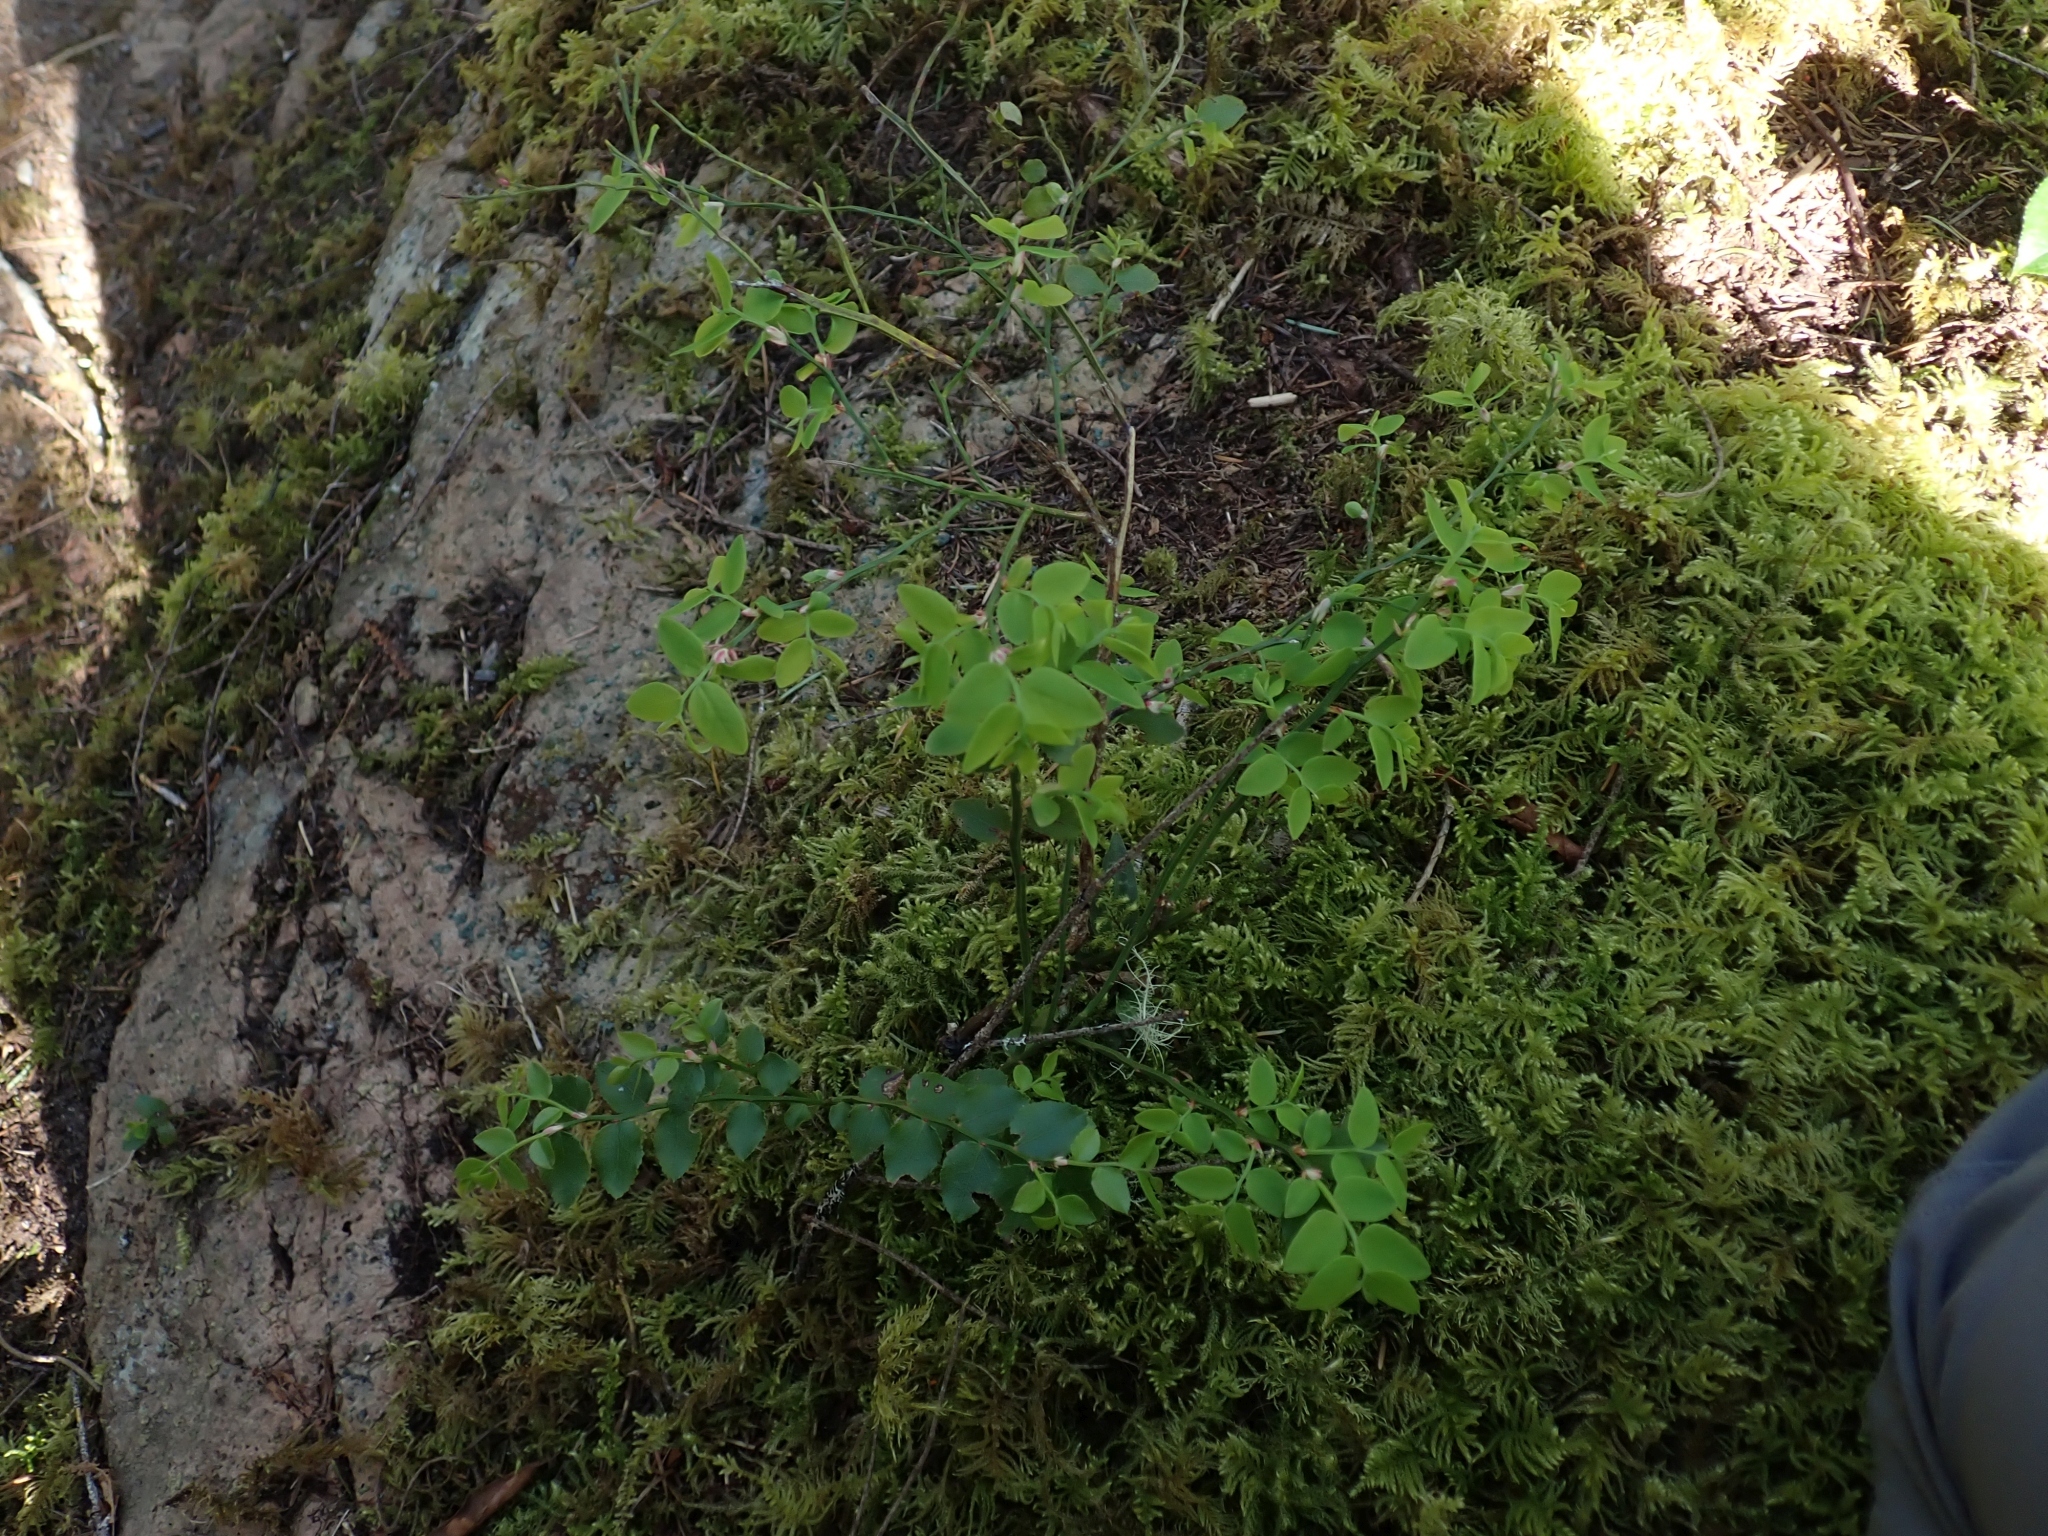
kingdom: Plantae
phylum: Tracheophyta
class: Magnoliopsida
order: Ericales
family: Ericaceae
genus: Vaccinium
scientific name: Vaccinium parvifolium
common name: Red-huckleberry
